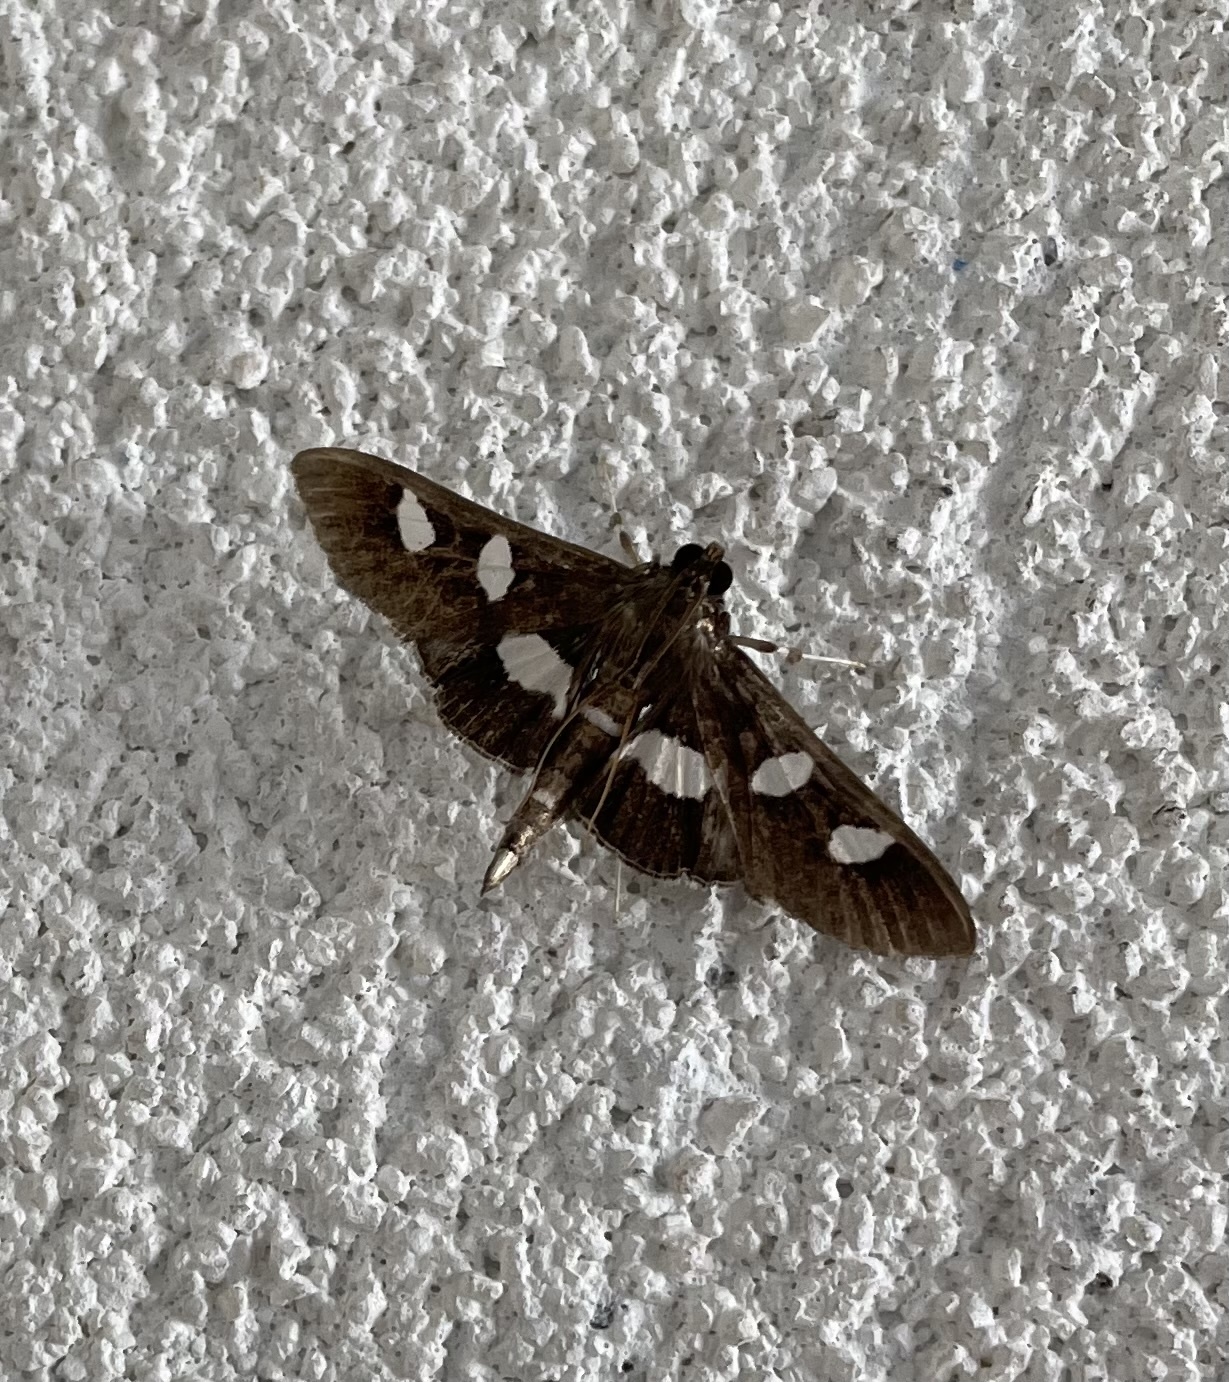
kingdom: Animalia
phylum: Arthropoda
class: Insecta
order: Lepidoptera
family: Crambidae
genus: Desmia
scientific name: Desmia
